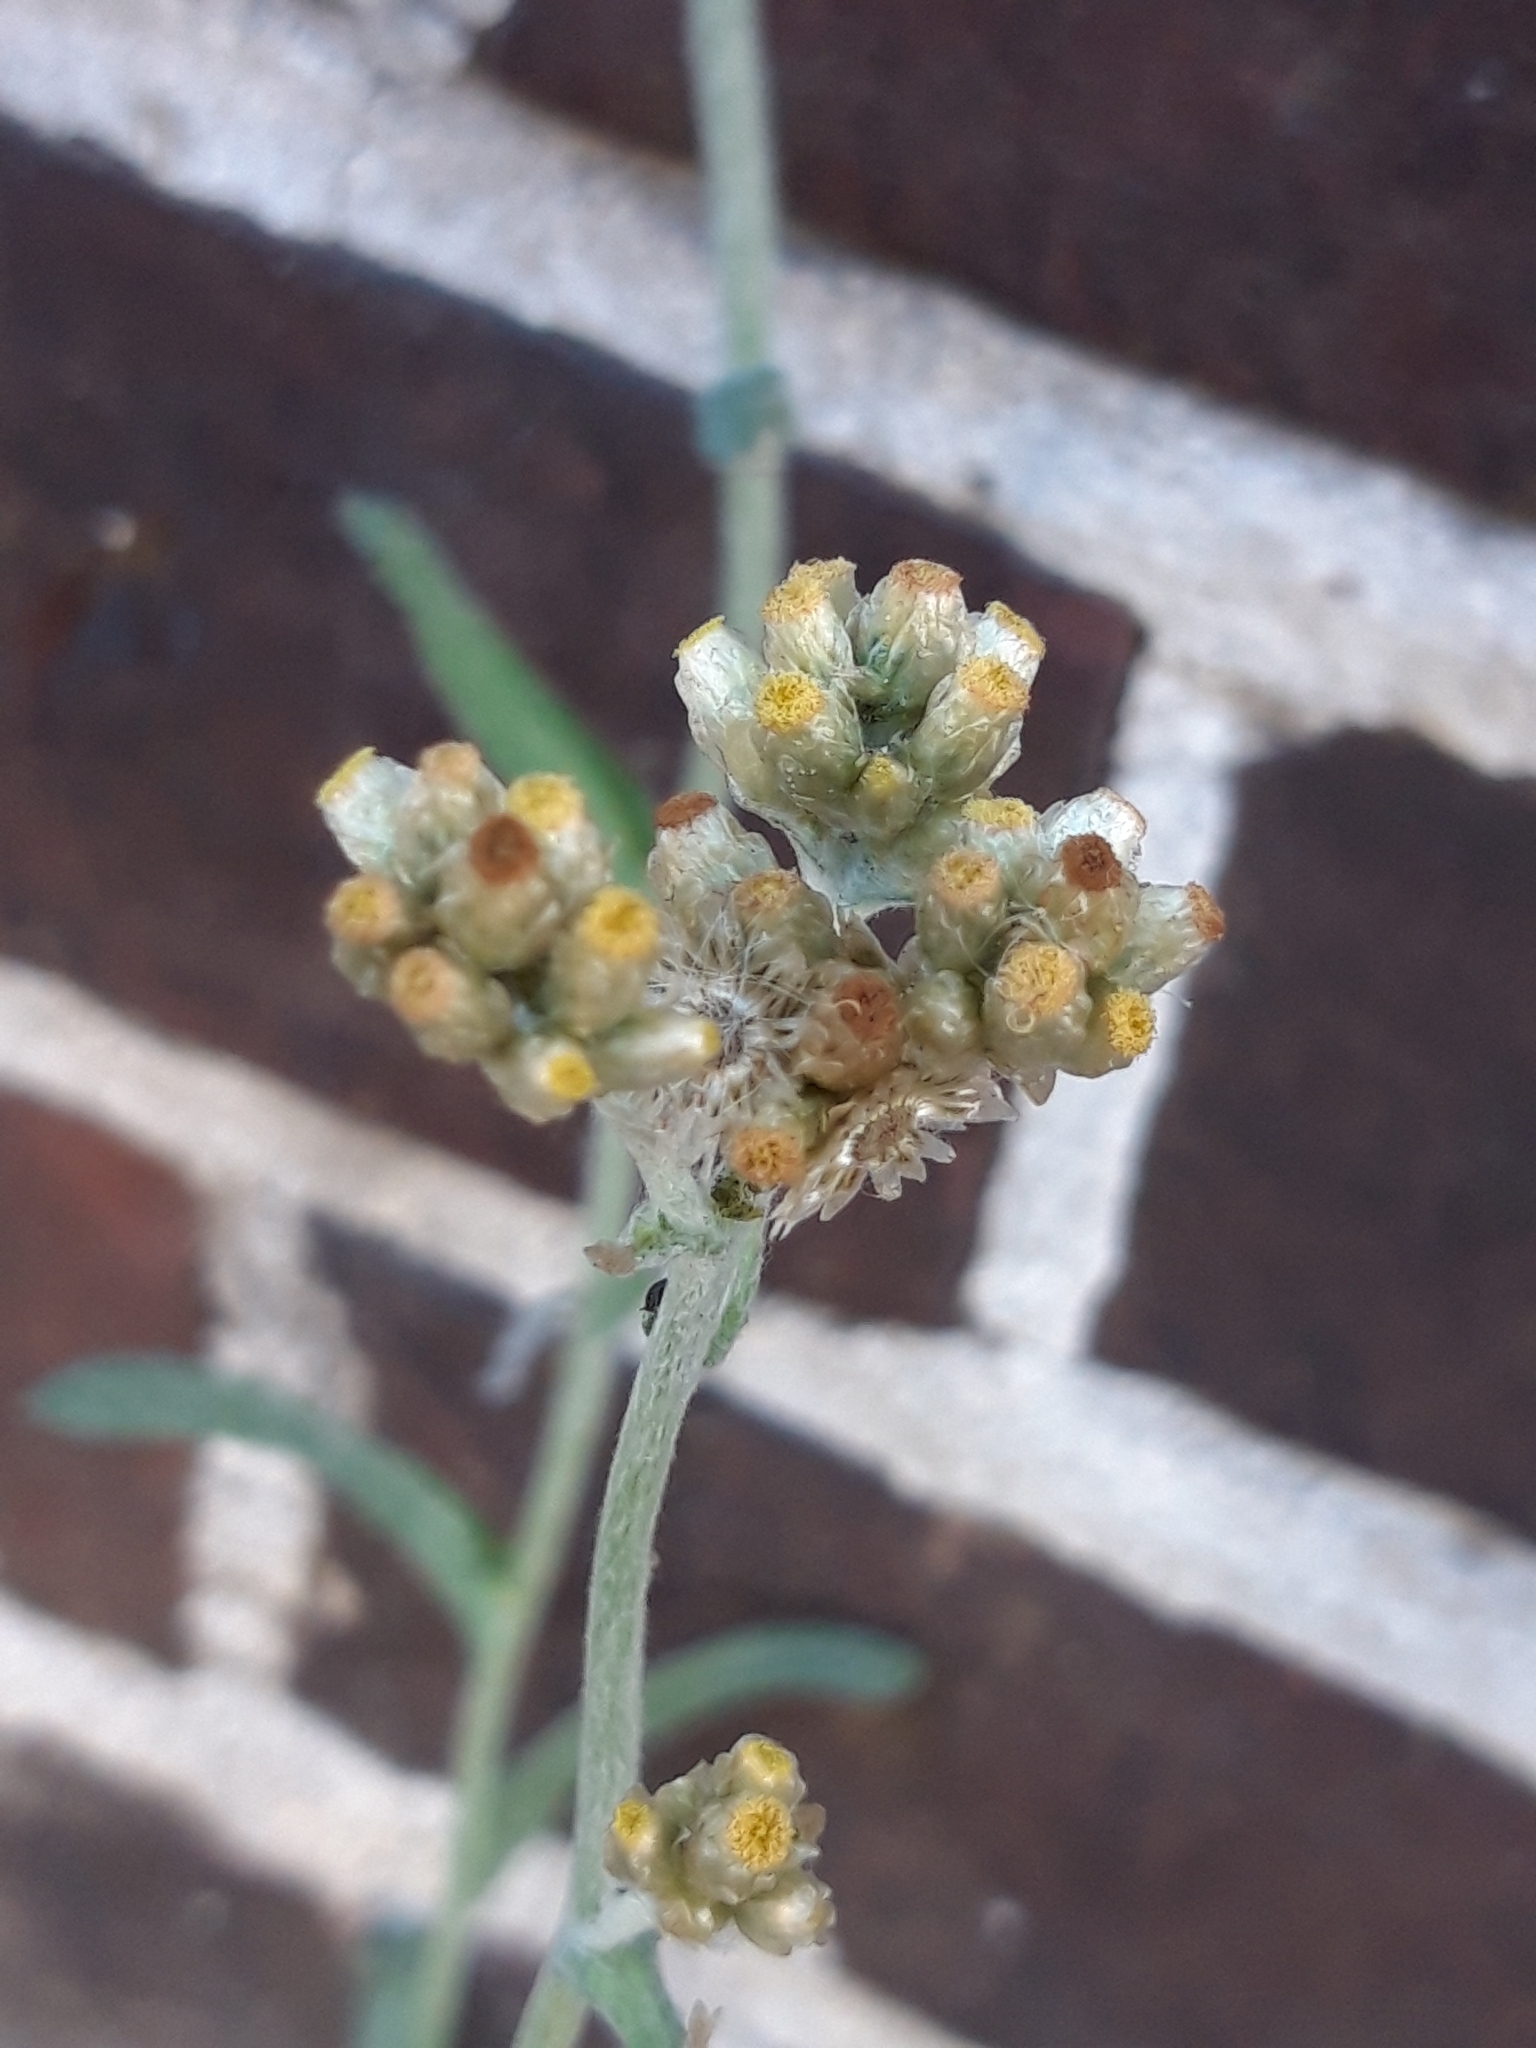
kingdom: Plantae
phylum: Tracheophyta
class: Magnoliopsida
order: Asterales
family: Asteraceae
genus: Helichrysum
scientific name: Helichrysum luteoalbum
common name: Daisy
